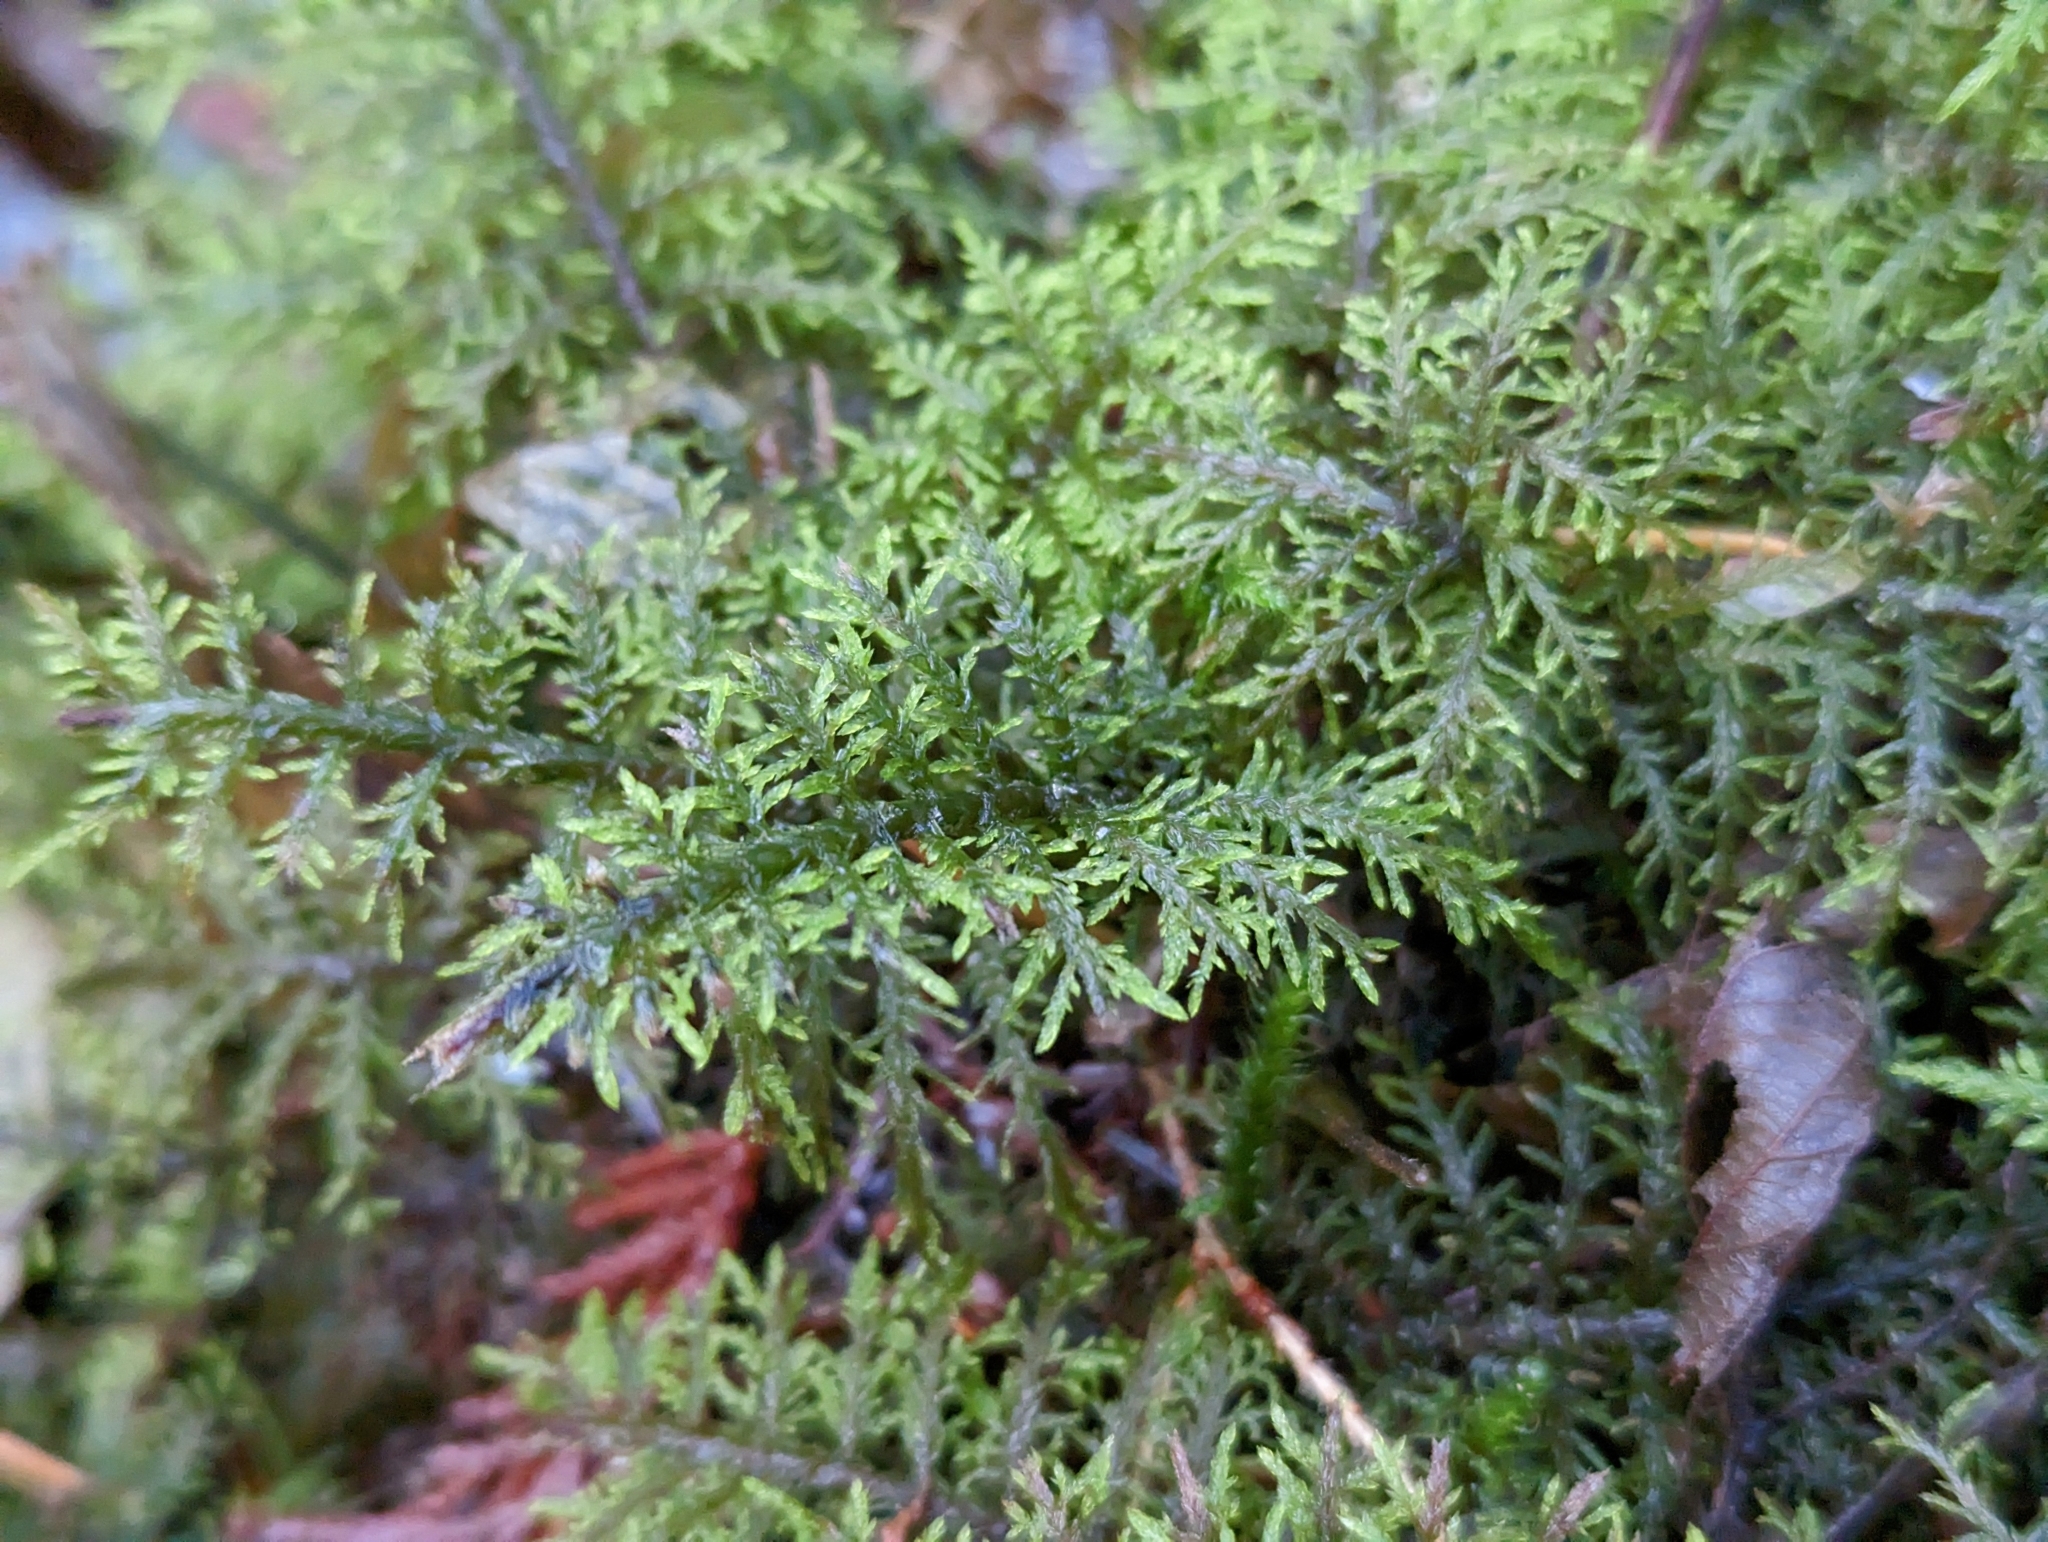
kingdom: Plantae
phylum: Bryophyta
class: Bryopsida
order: Hypnales
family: Hylocomiaceae
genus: Hylocomium
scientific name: Hylocomium splendens
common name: Stairstep moss
